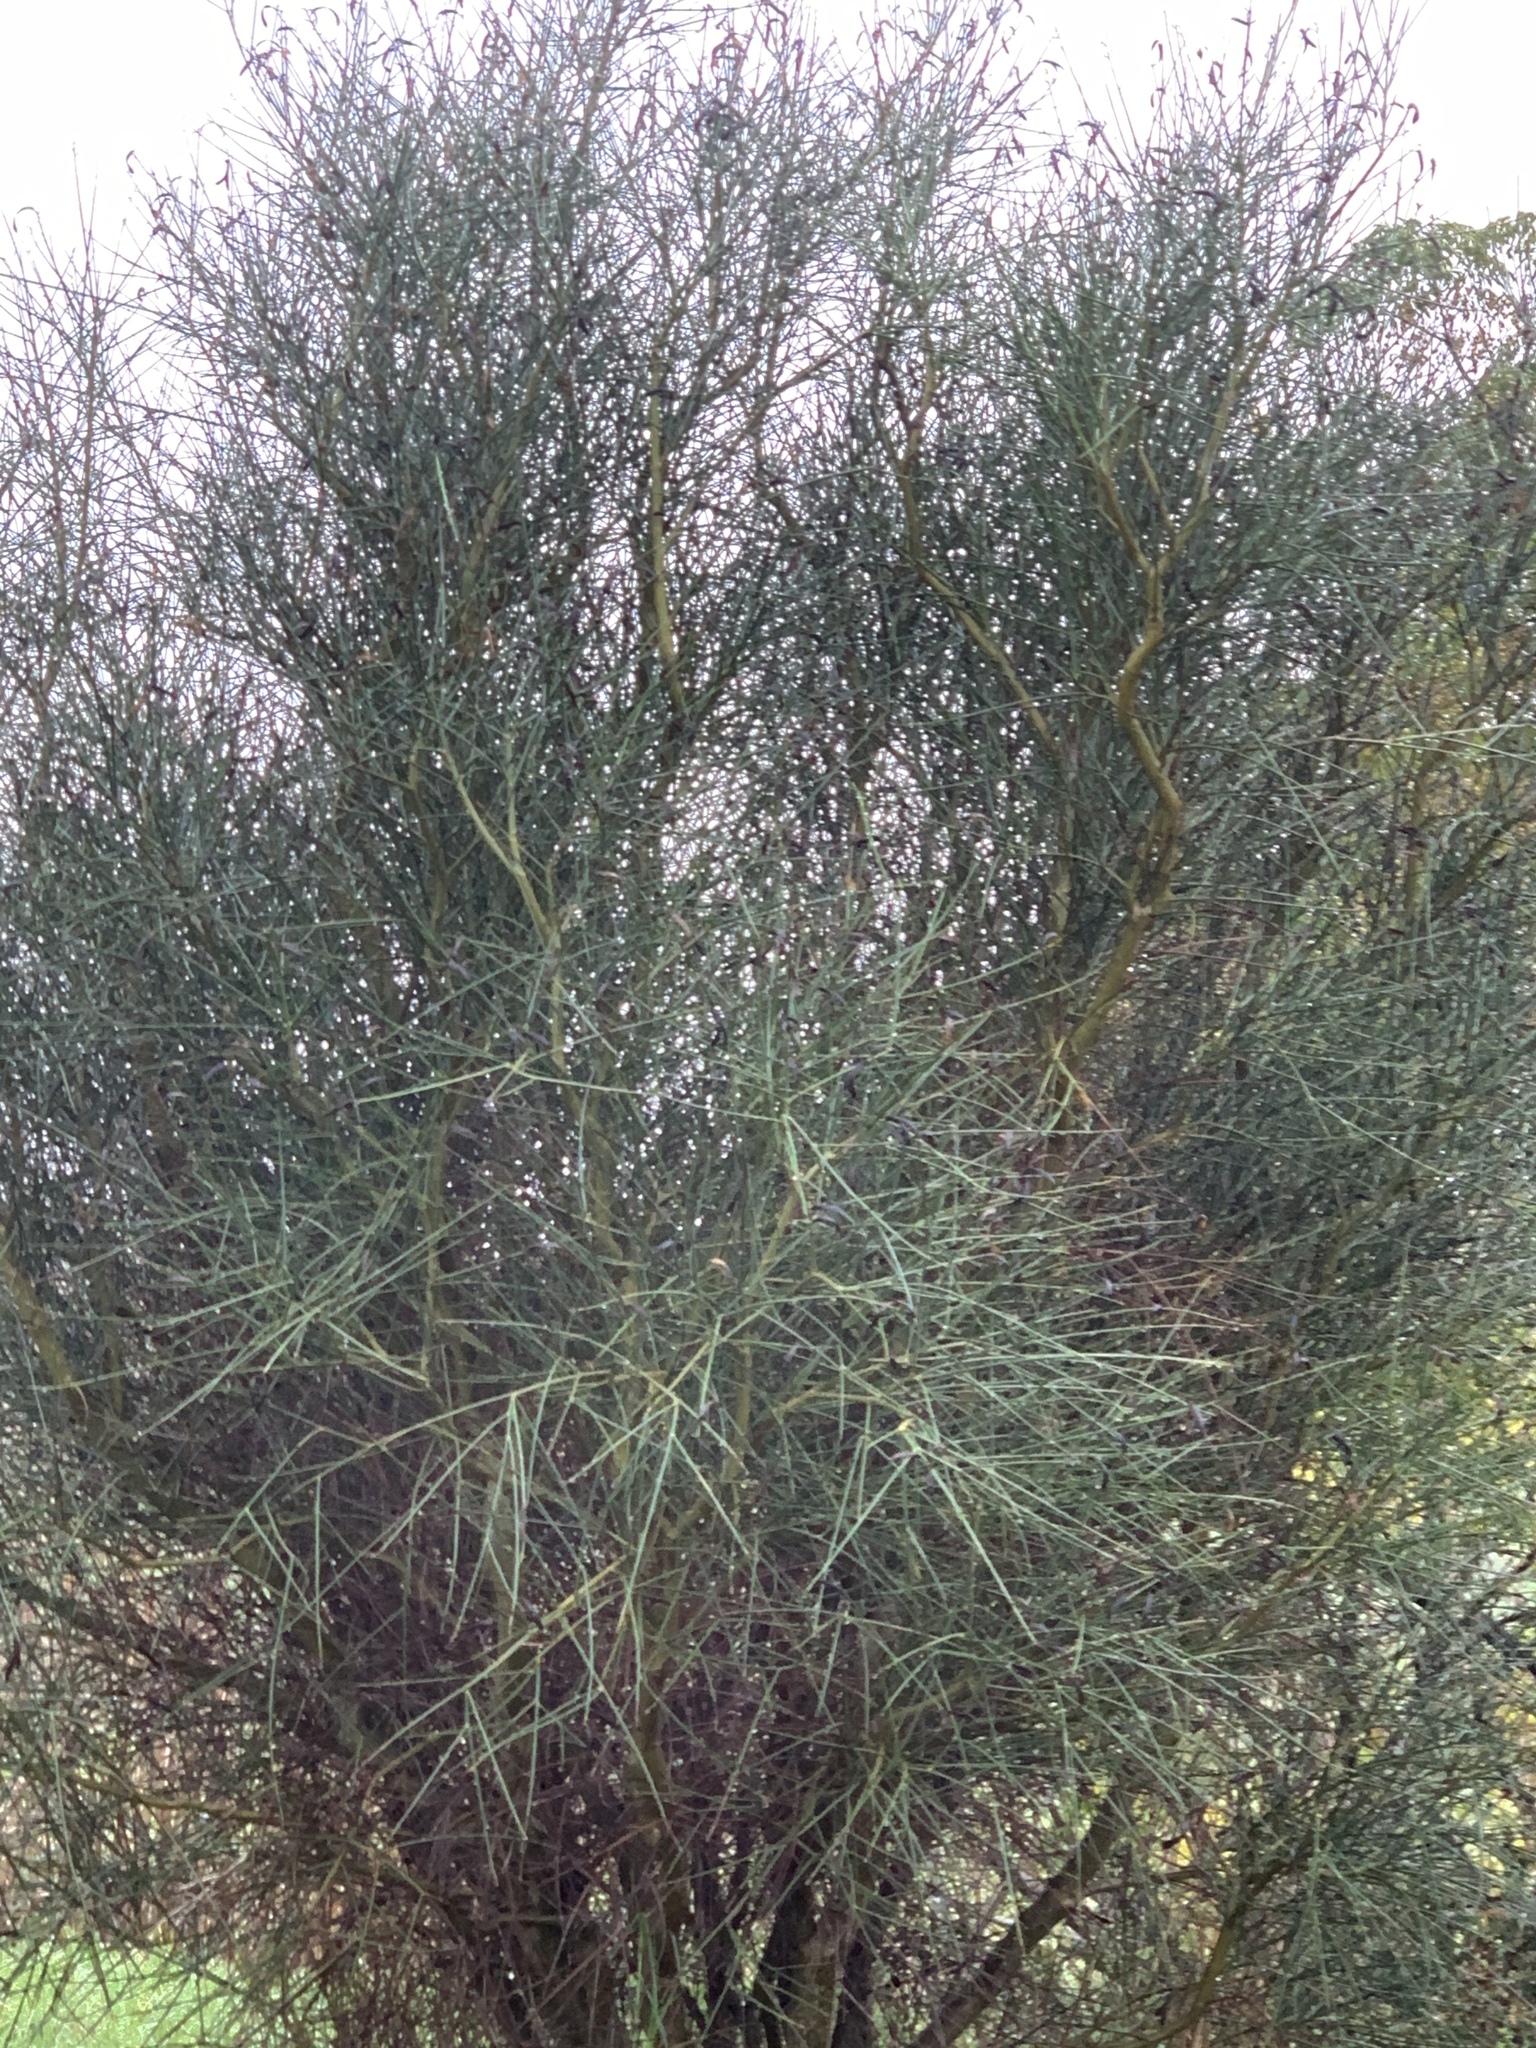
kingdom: Plantae
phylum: Tracheophyta
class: Magnoliopsida
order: Fabales
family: Fabaceae
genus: Spartium
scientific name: Spartium junceum
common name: Spanish broom
